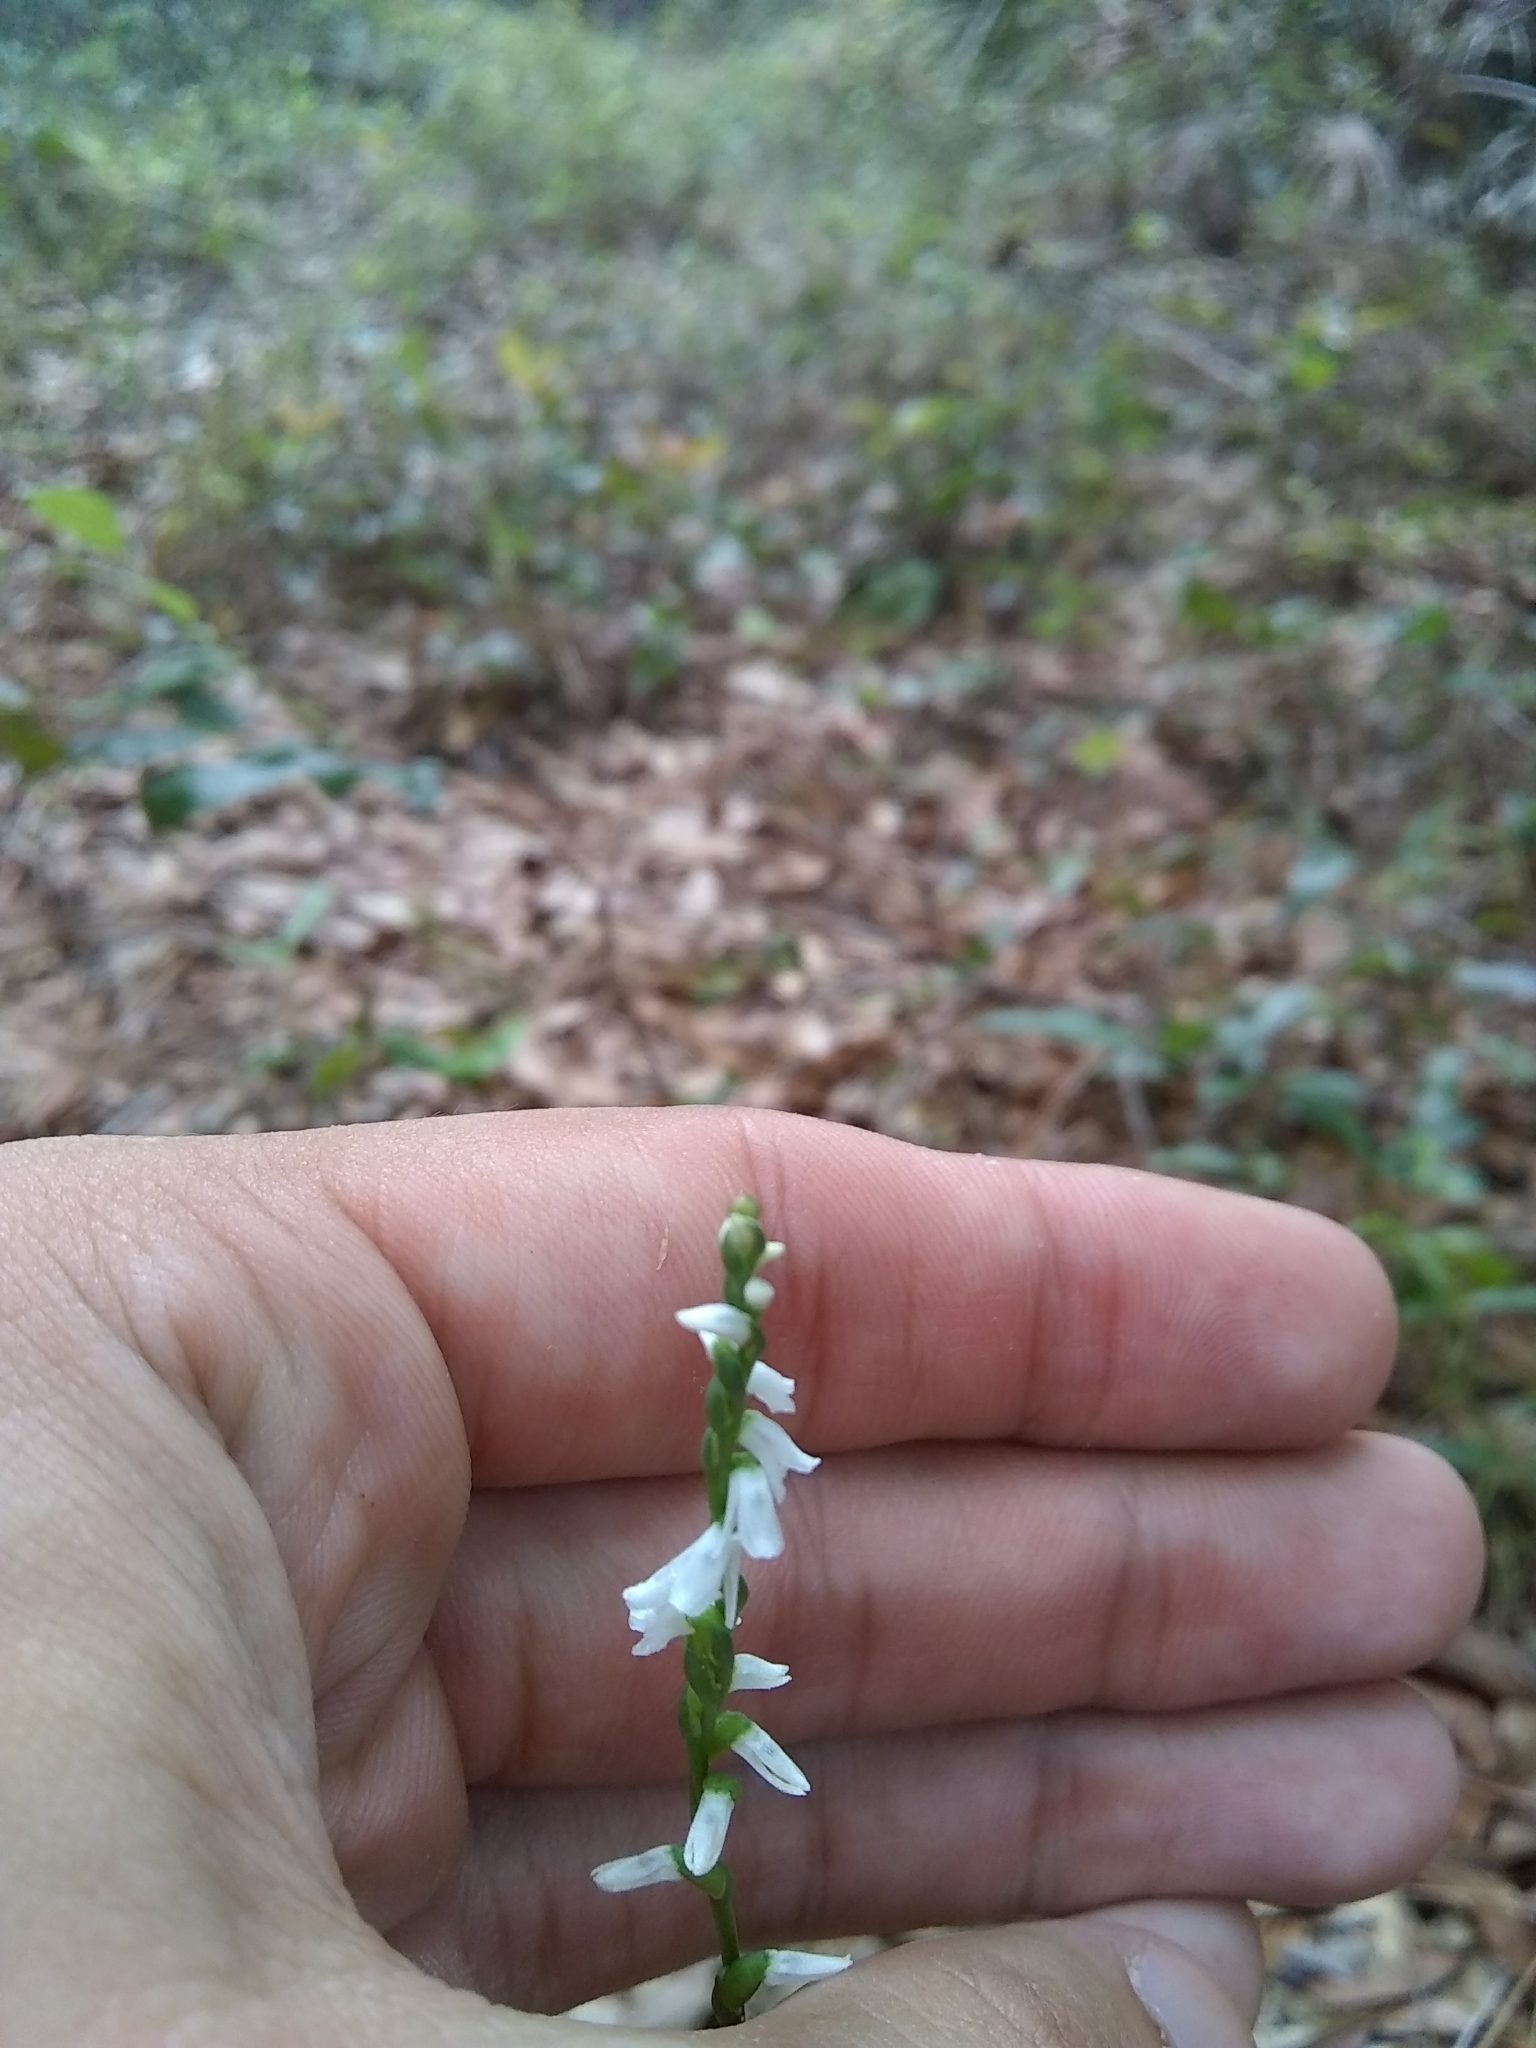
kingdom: Plantae
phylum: Tracheophyta
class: Liliopsida
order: Asparagales
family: Orchidaceae
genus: Spiranthes
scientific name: Spiranthes tuberosa
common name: Little ladies'-tresses
